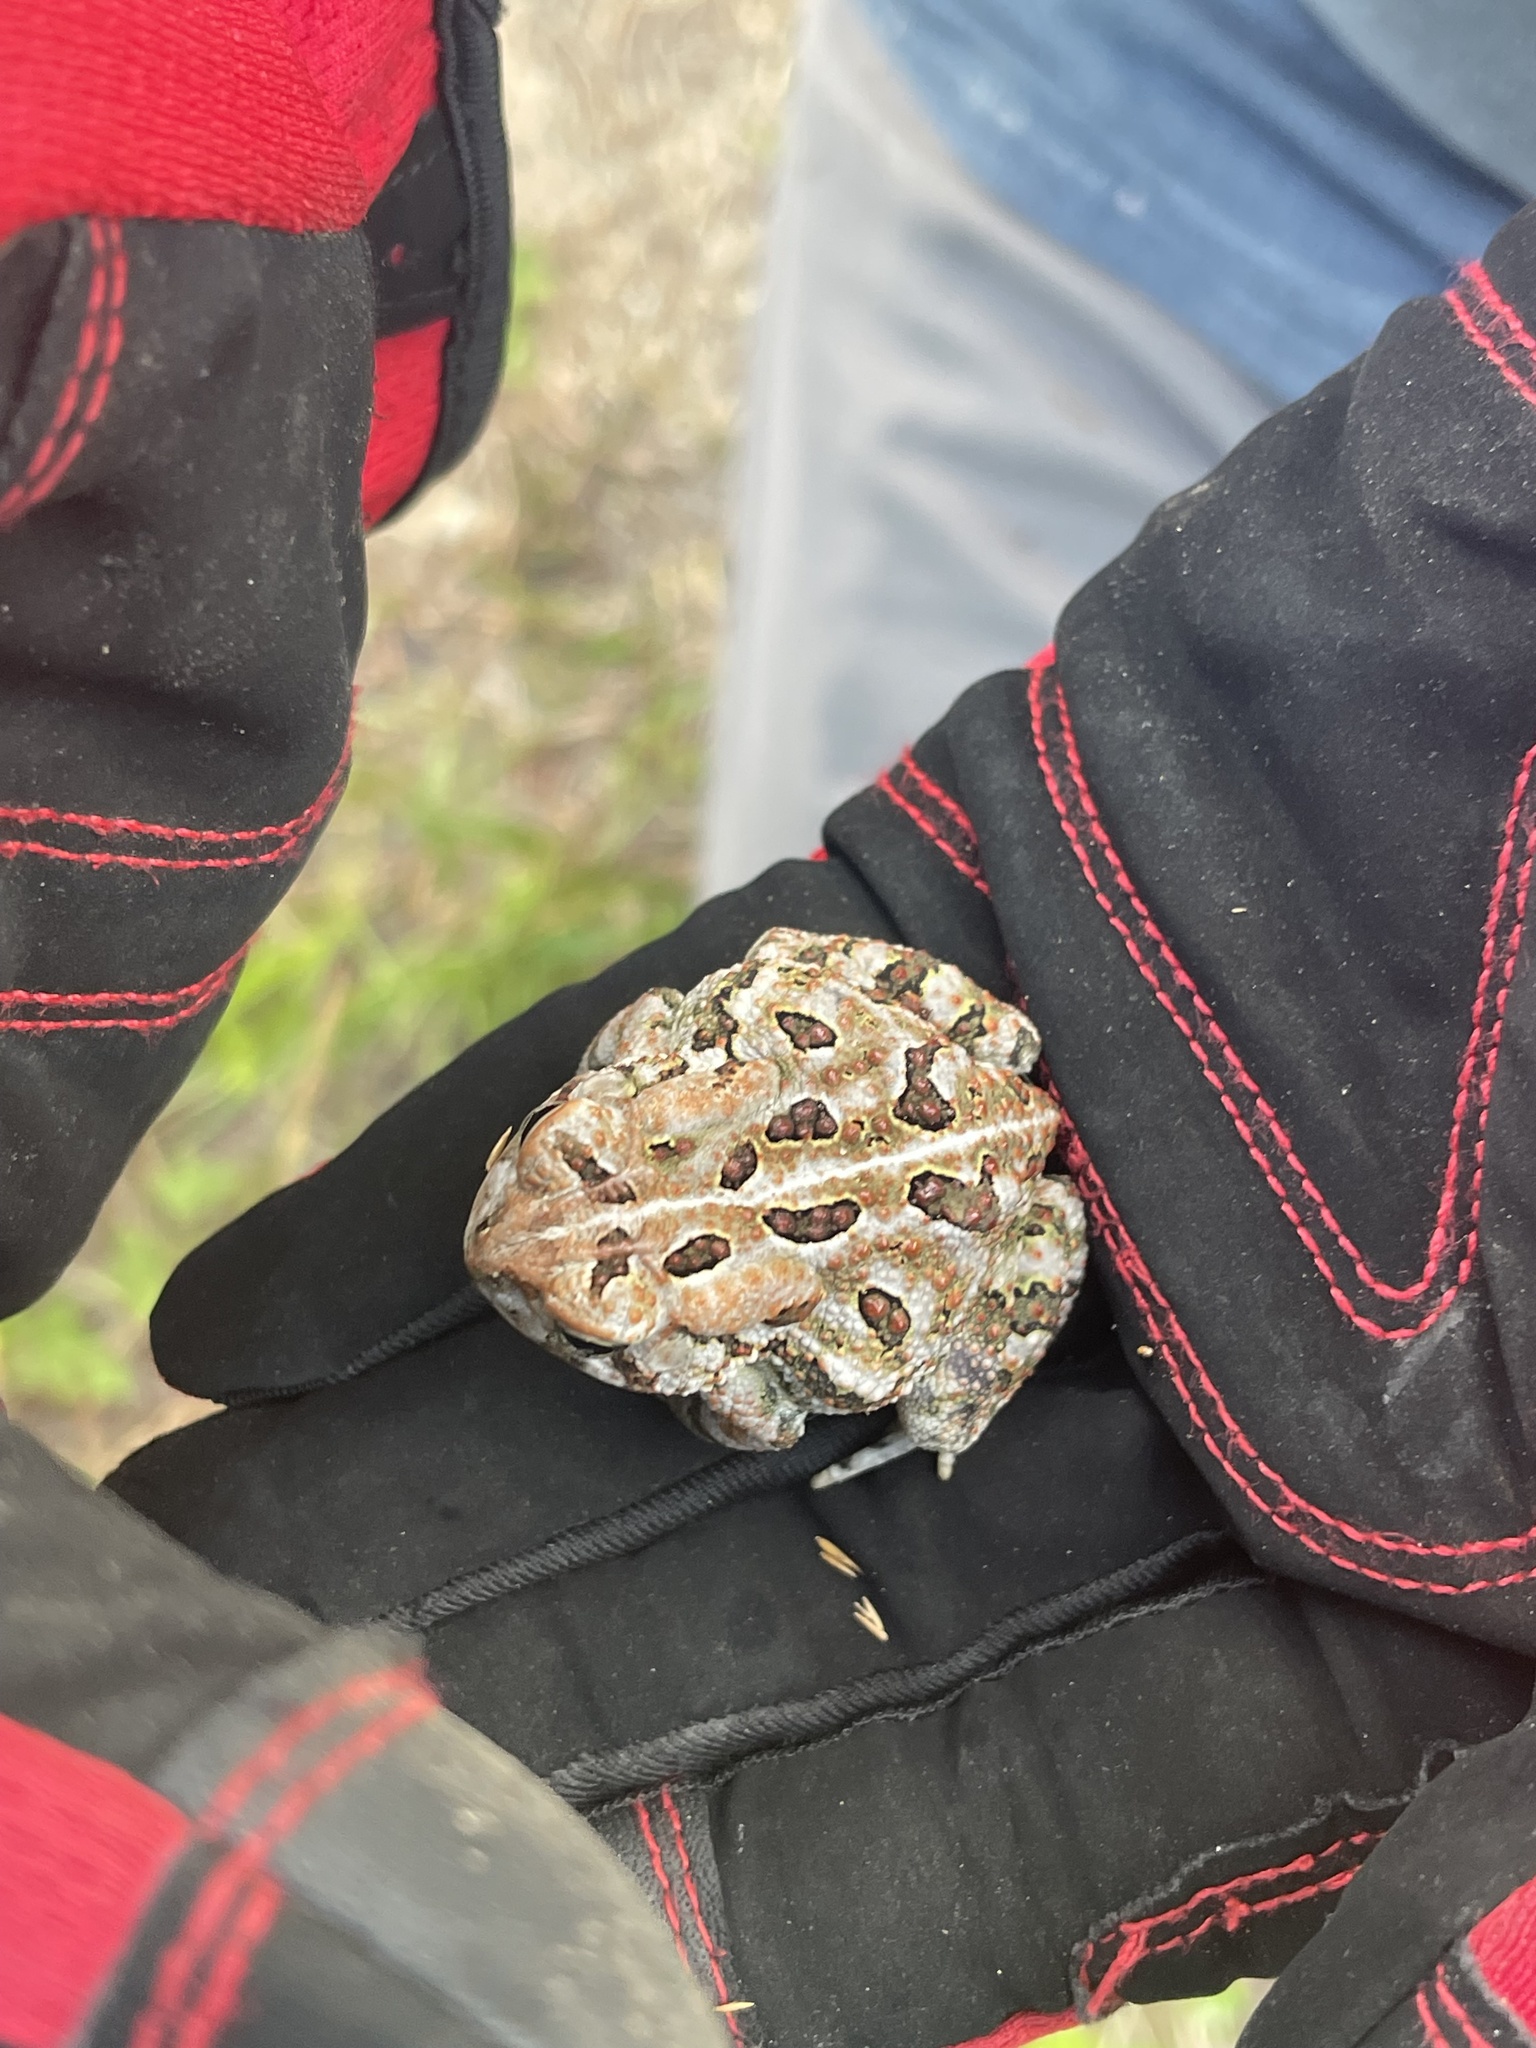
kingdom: Animalia
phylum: Chordata
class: Amphibia
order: Anura
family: Bufonidae
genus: Anaxyrus
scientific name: Anaxyrus fowleri
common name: Fowler's toad
